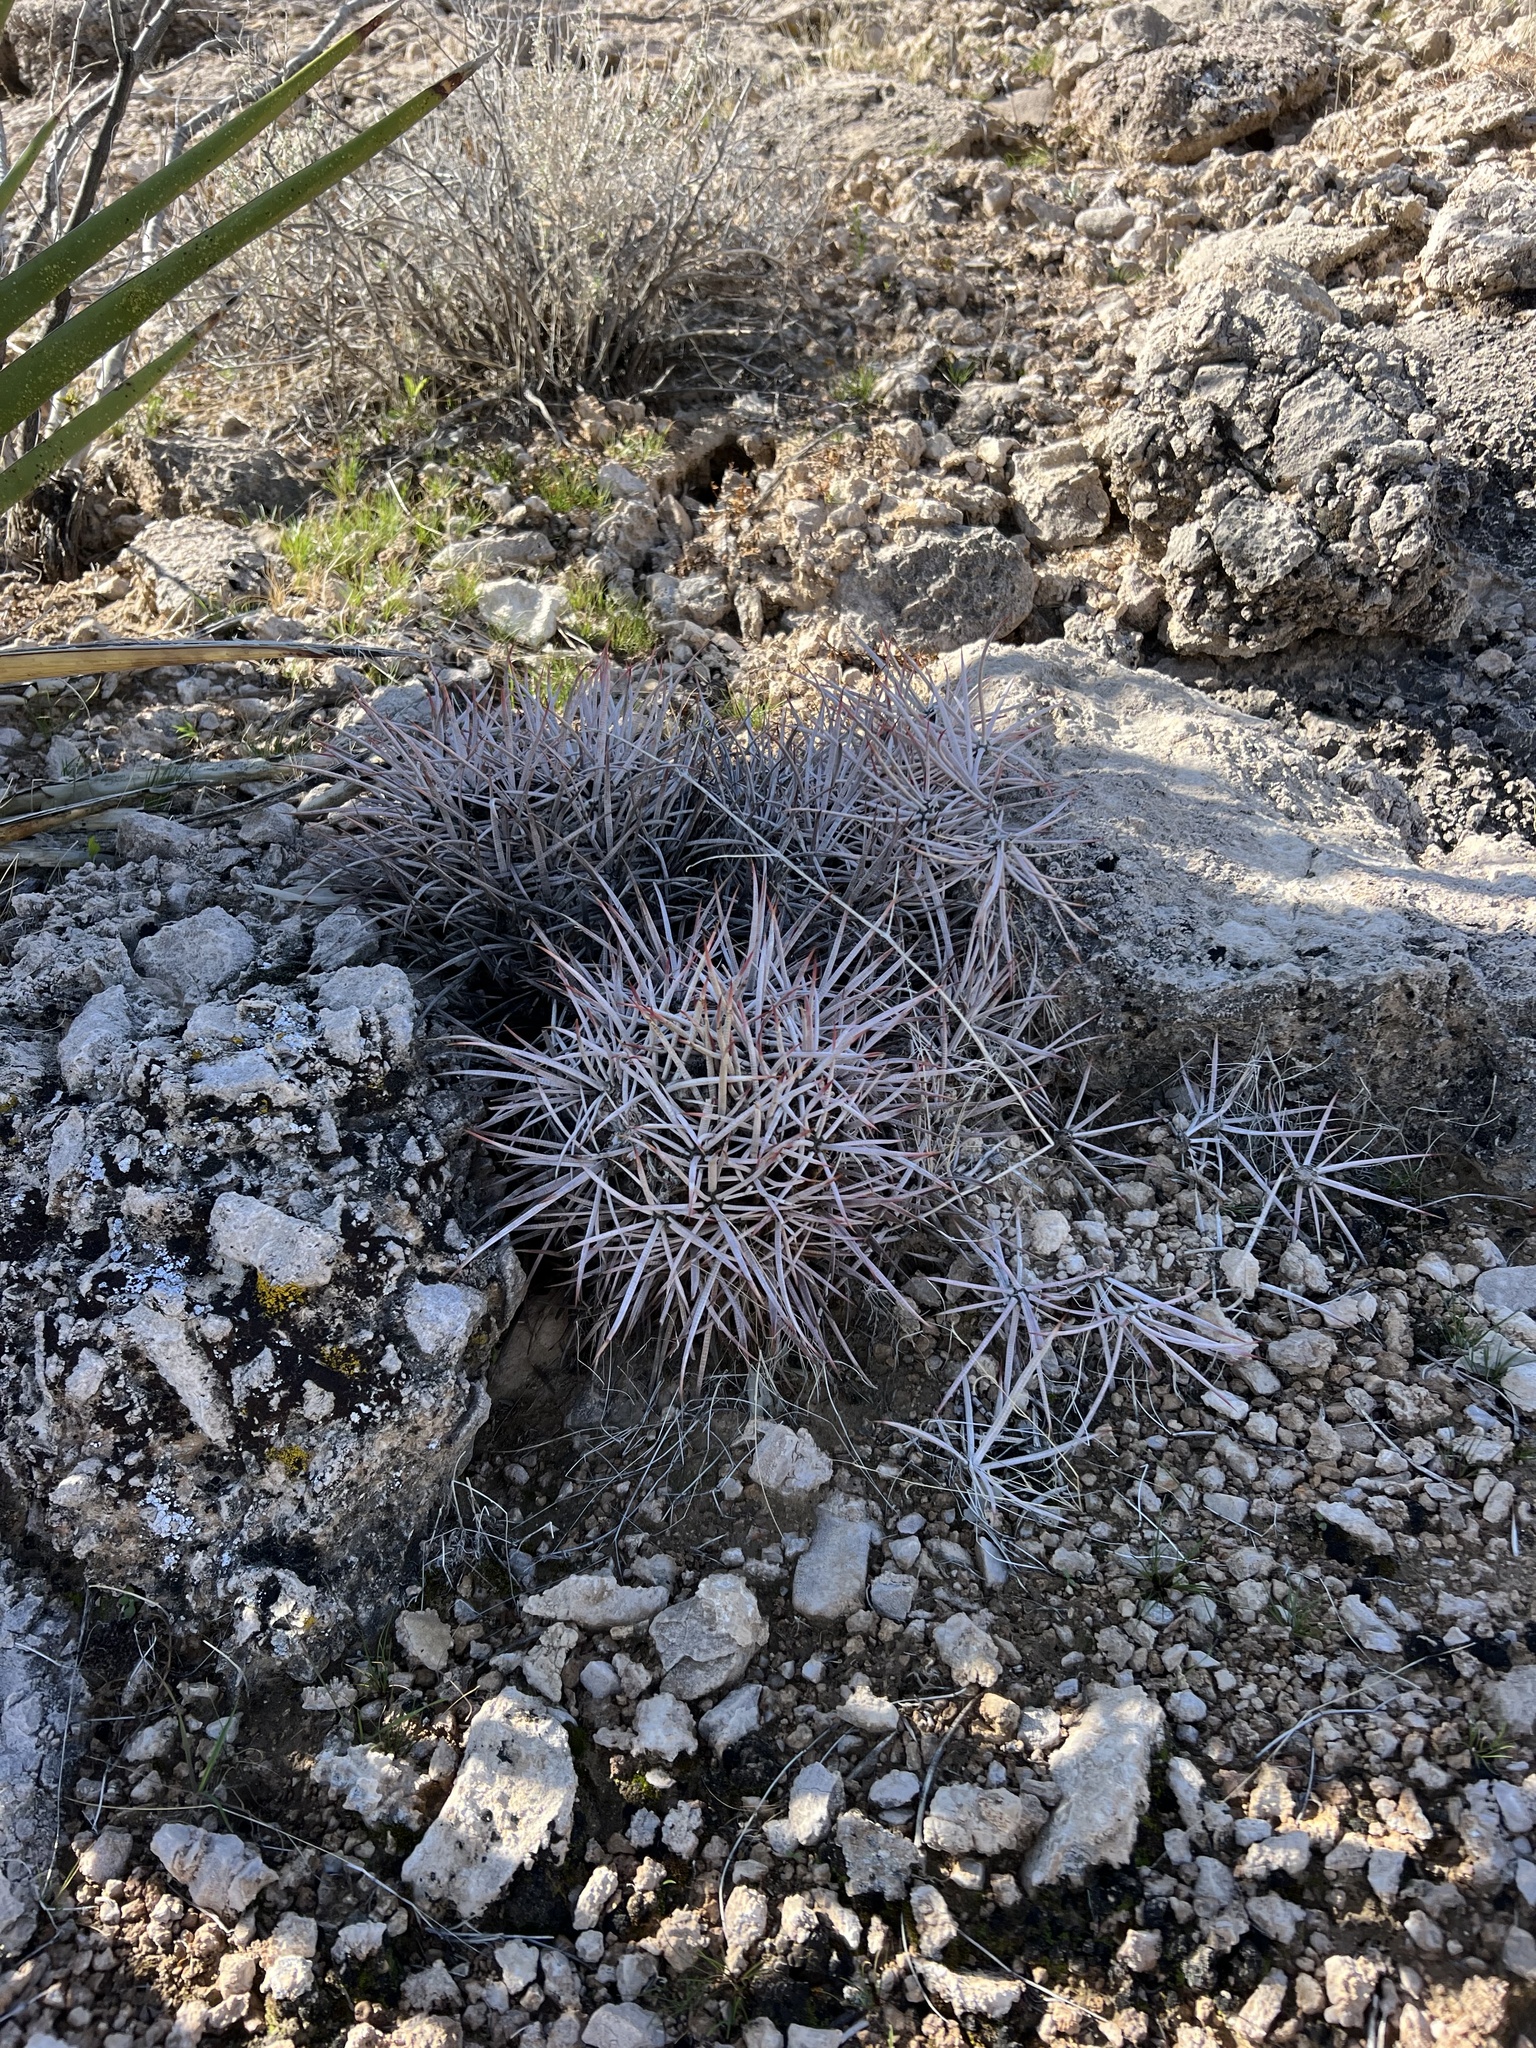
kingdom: Plantae
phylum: Tracheophyta
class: Magnoliopsida
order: Caryophyllales
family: Cactaceae
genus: Echinocactus
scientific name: Echinocactus polycephalus
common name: Cottontop cactus
